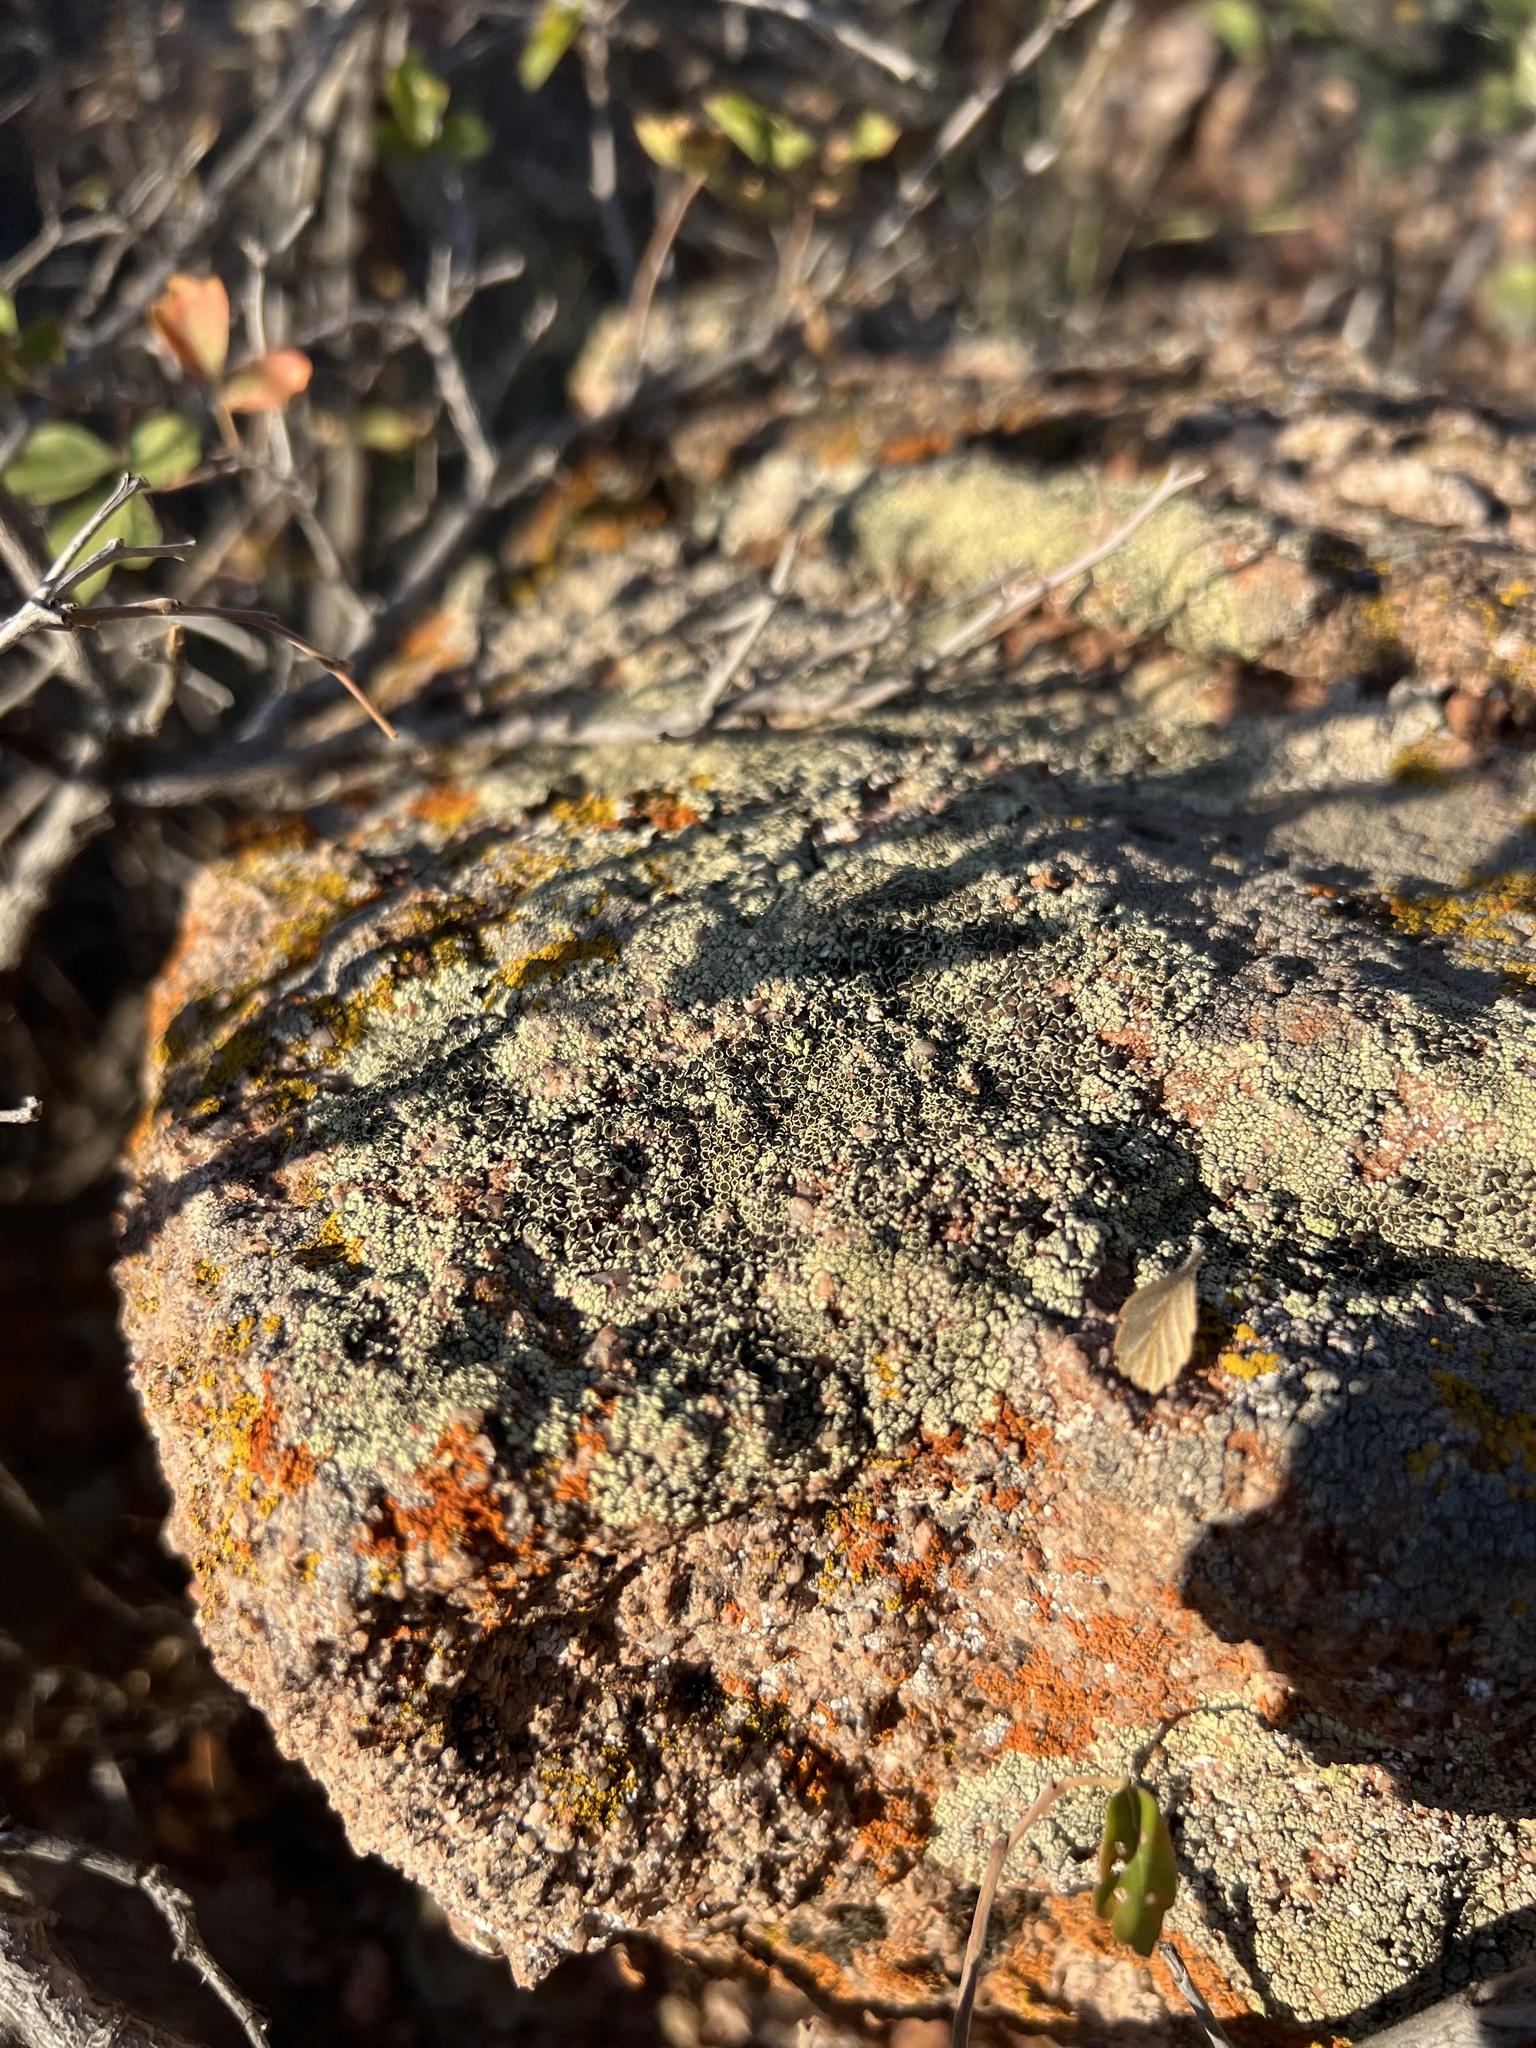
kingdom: Fungi
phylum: Ascomycota
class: Lecanoromycetes
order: Lecanorales
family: Lecanoraceae
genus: Lecanora
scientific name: Lecanora argopholis
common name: Varying rim lichen
